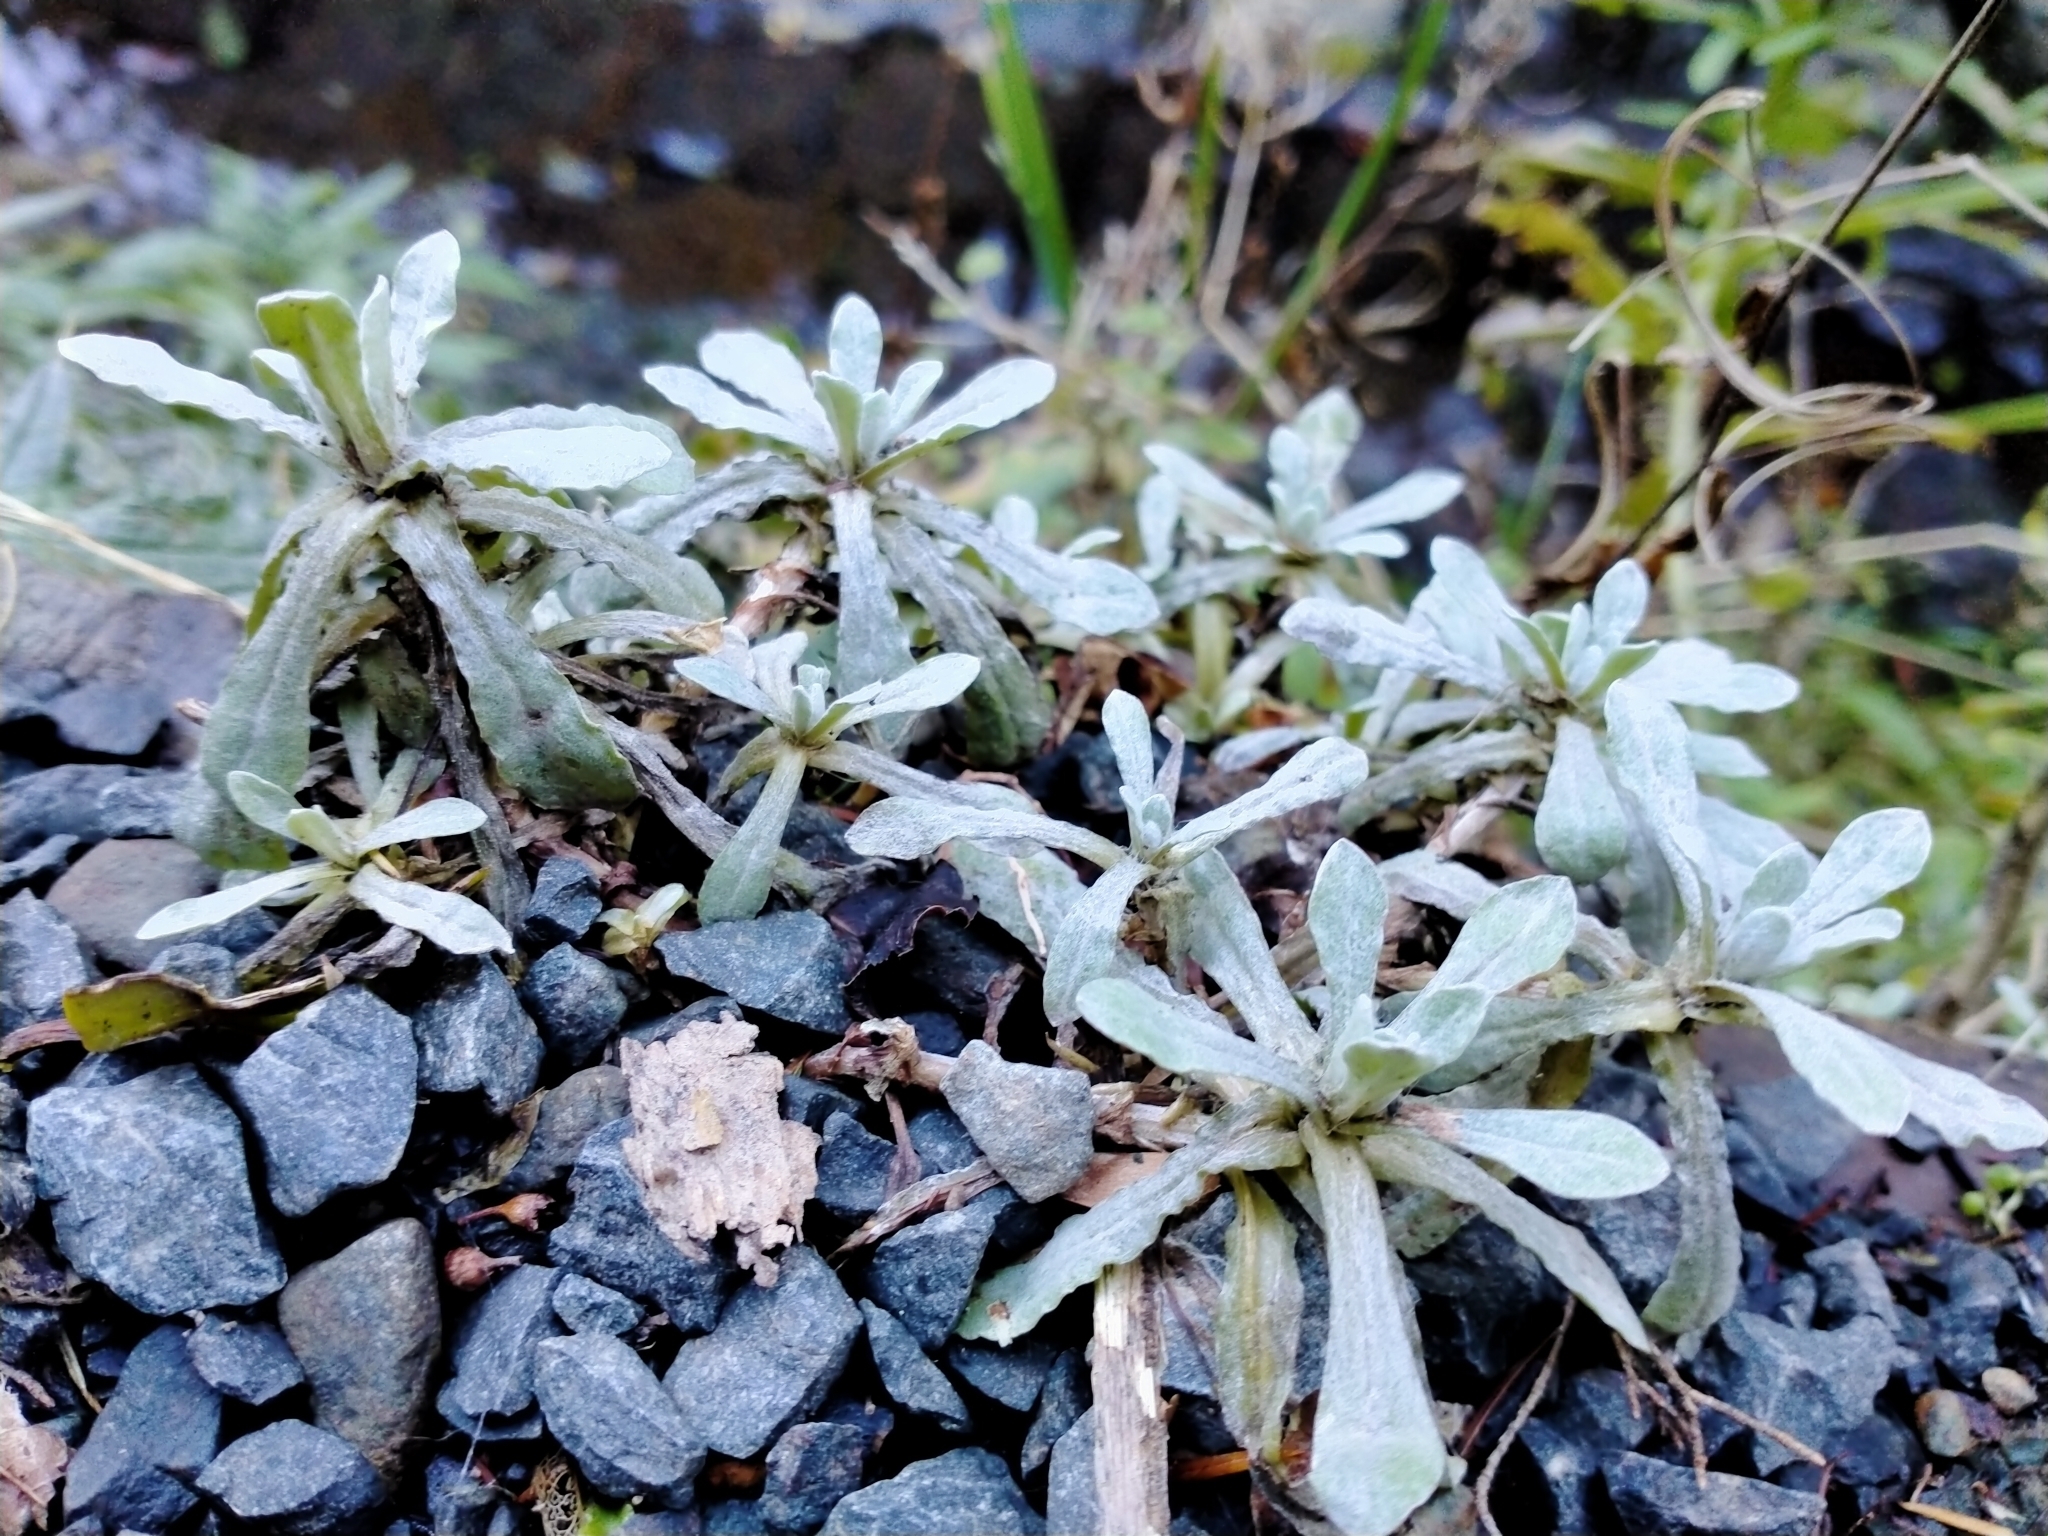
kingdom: Plantae
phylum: Tracheophyta
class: Magnoliopsida
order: Asterales
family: Asteraceae
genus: Helichrysum
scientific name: Helichrysum luteoalbum
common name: Daisy
